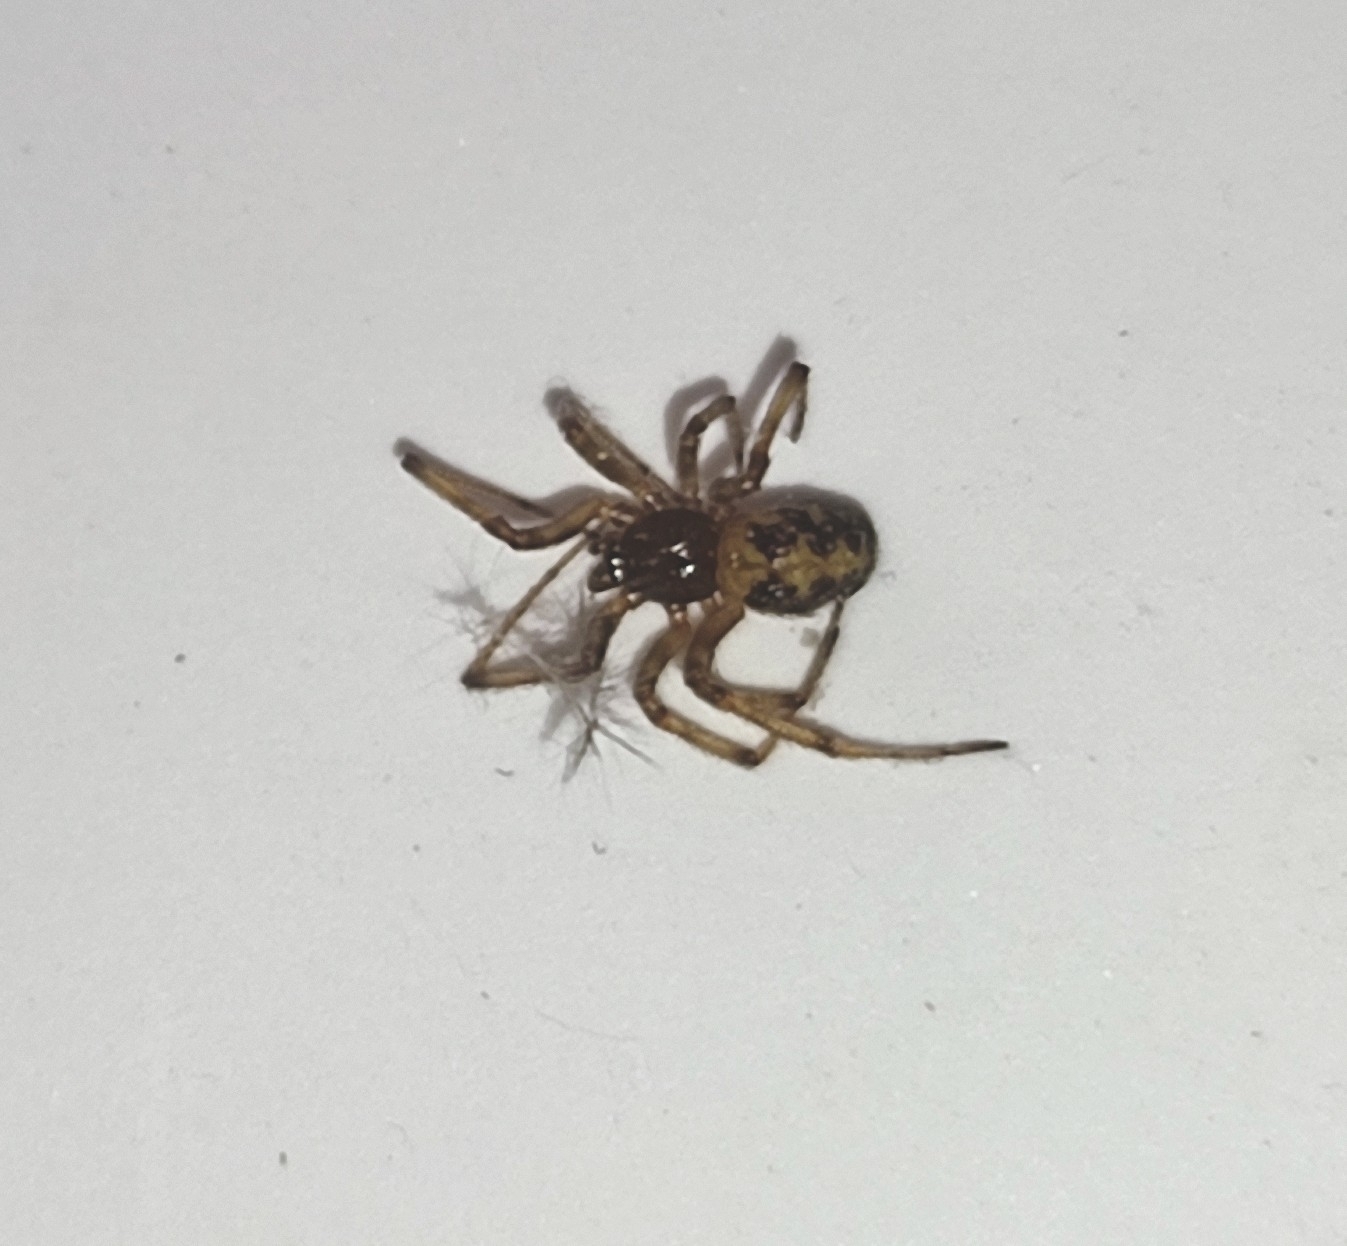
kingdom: Animalia
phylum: Arthropoda
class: Arachnida
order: Araneae
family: Theridiidae
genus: Steatoda
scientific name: Steatoda triangulosa
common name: Triangulate bud spider
